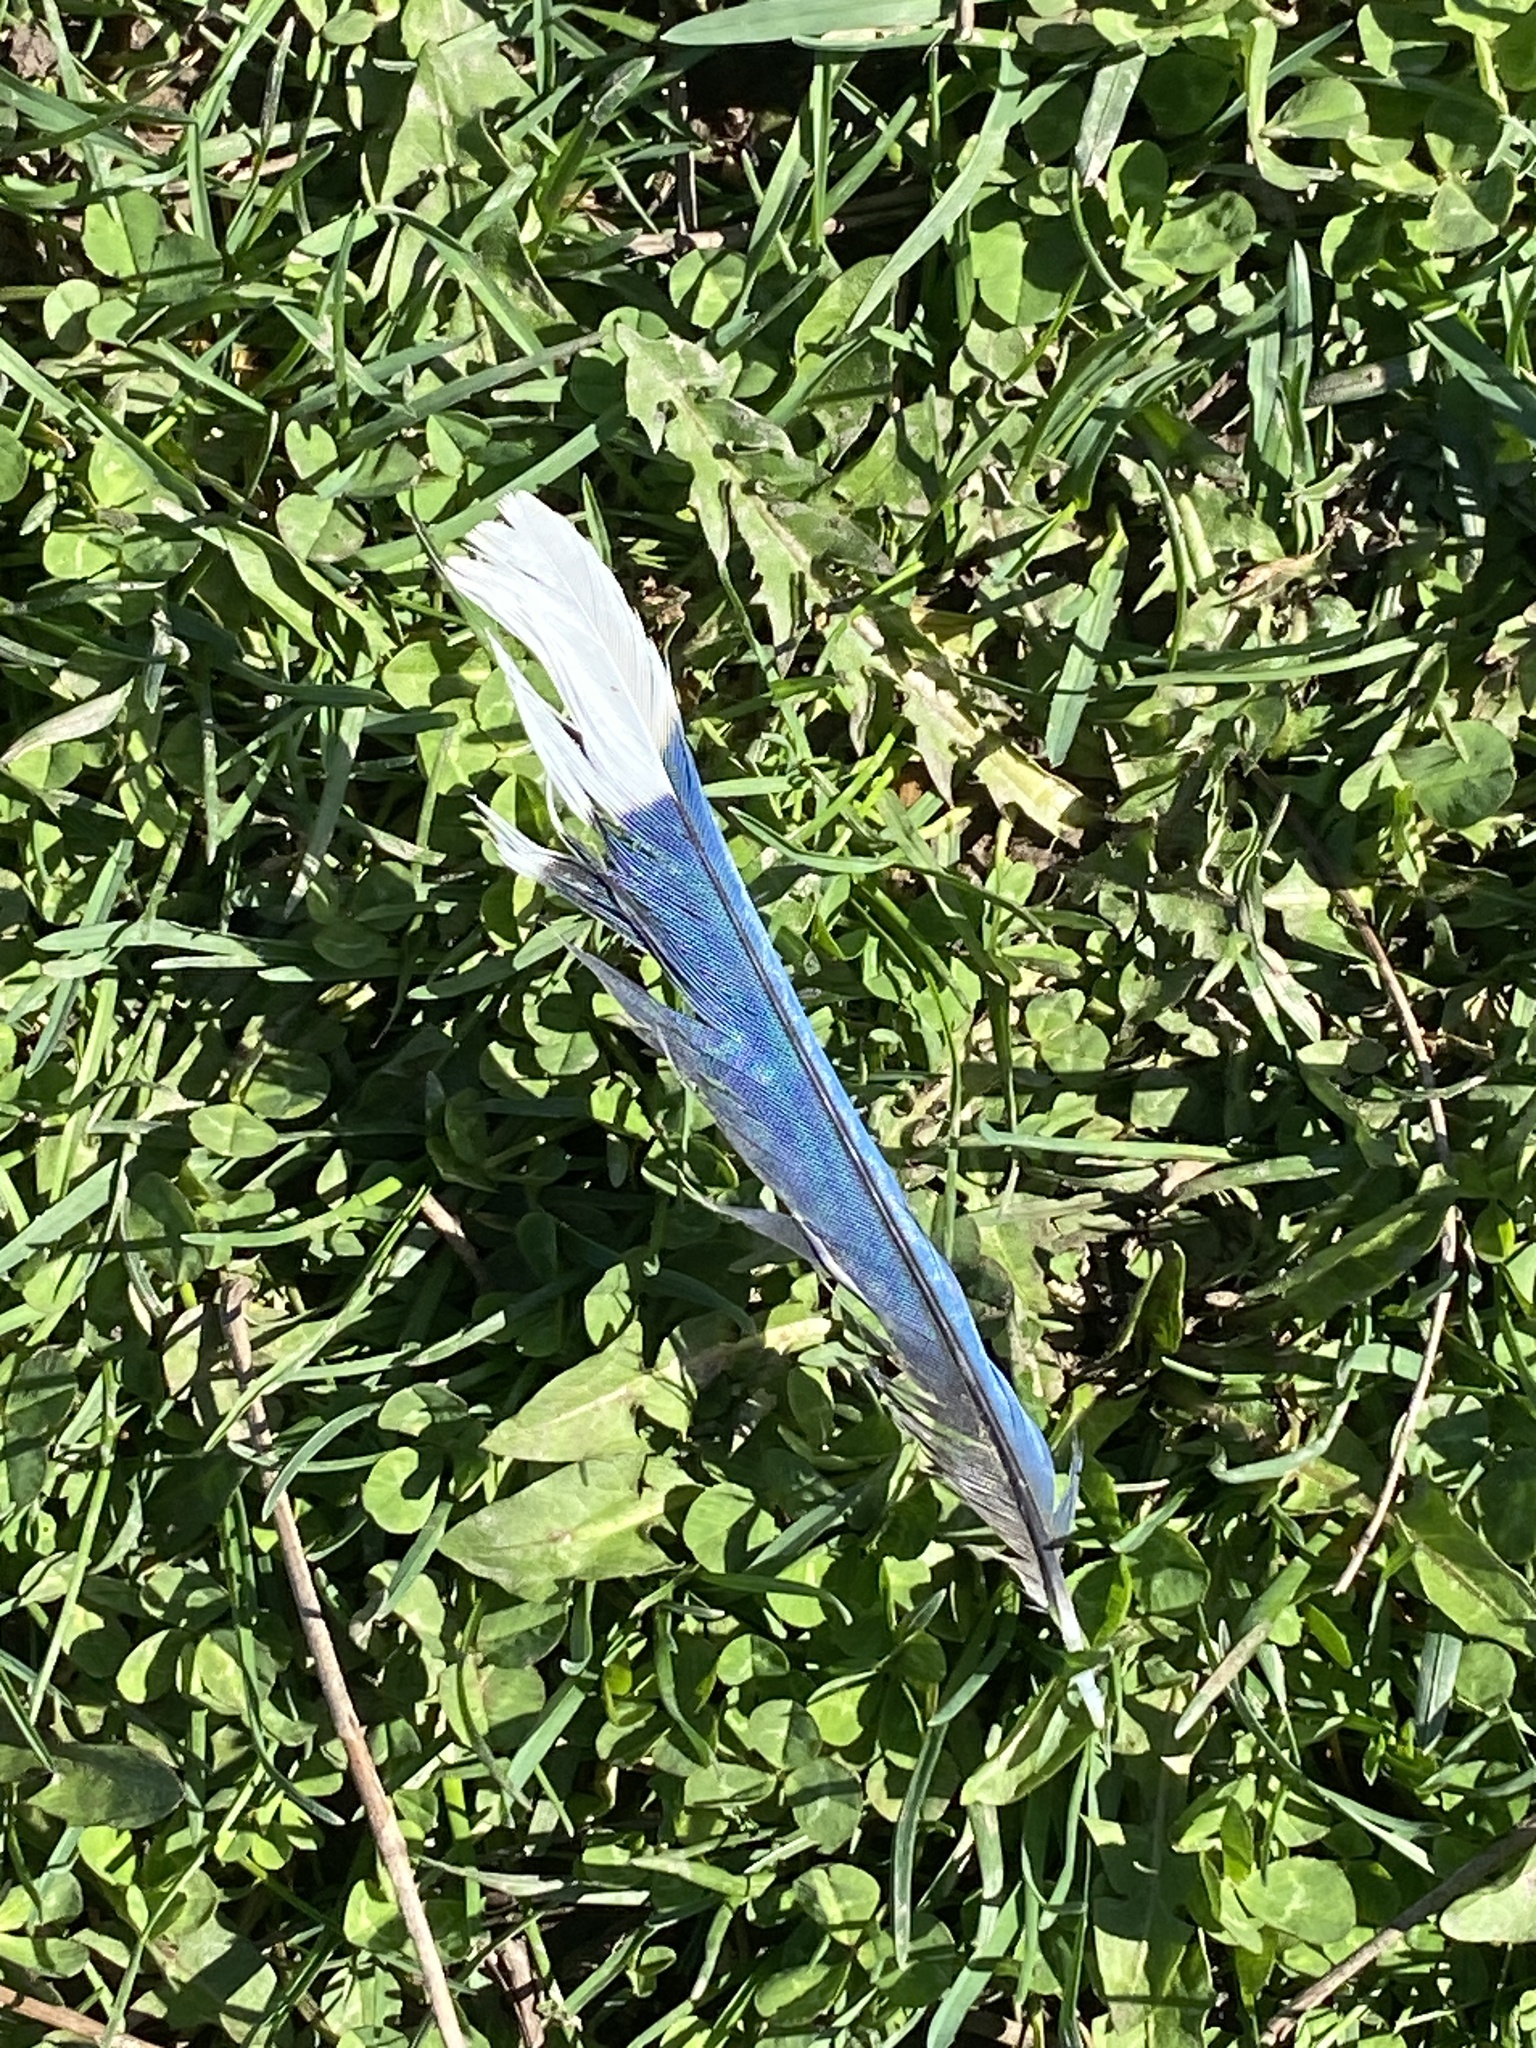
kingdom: Animalia
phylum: Chordata
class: Aves
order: Passeriformes
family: Corvidae
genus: Cyanocitta
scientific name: Cyanocitta cristata
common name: Blue jay
